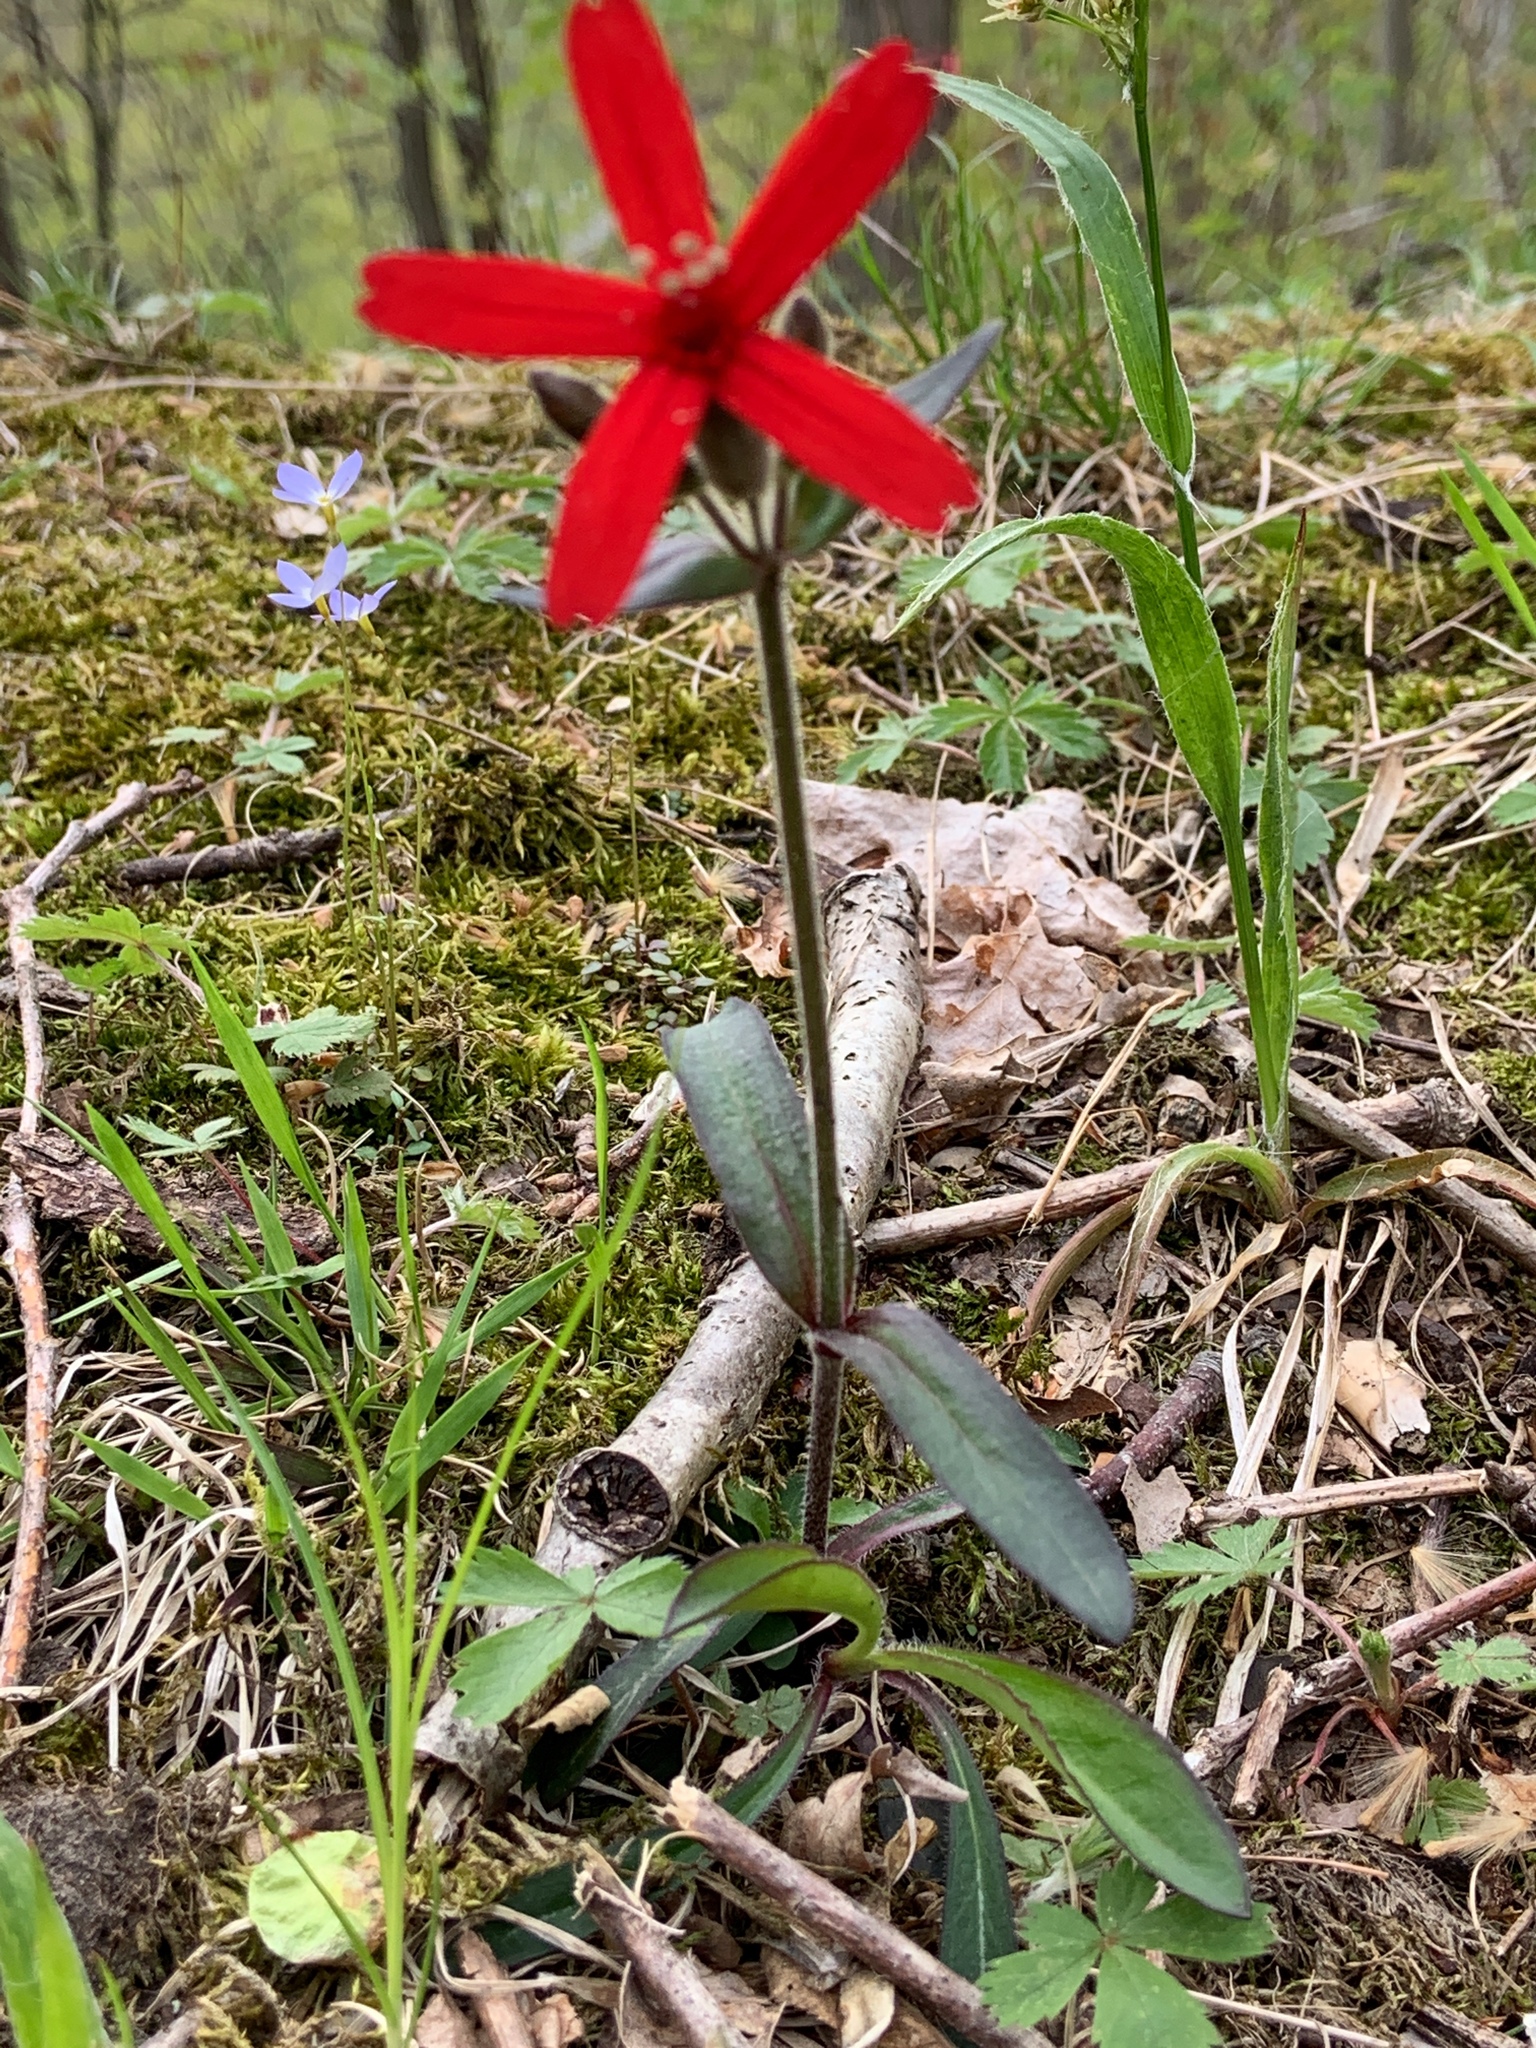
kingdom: Plantae
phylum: Tracheophyta
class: Magnoliopsida
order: Caryophyllales
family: Caryophyllaceae
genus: Silene
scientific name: Silene virginica
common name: Fire-pink
